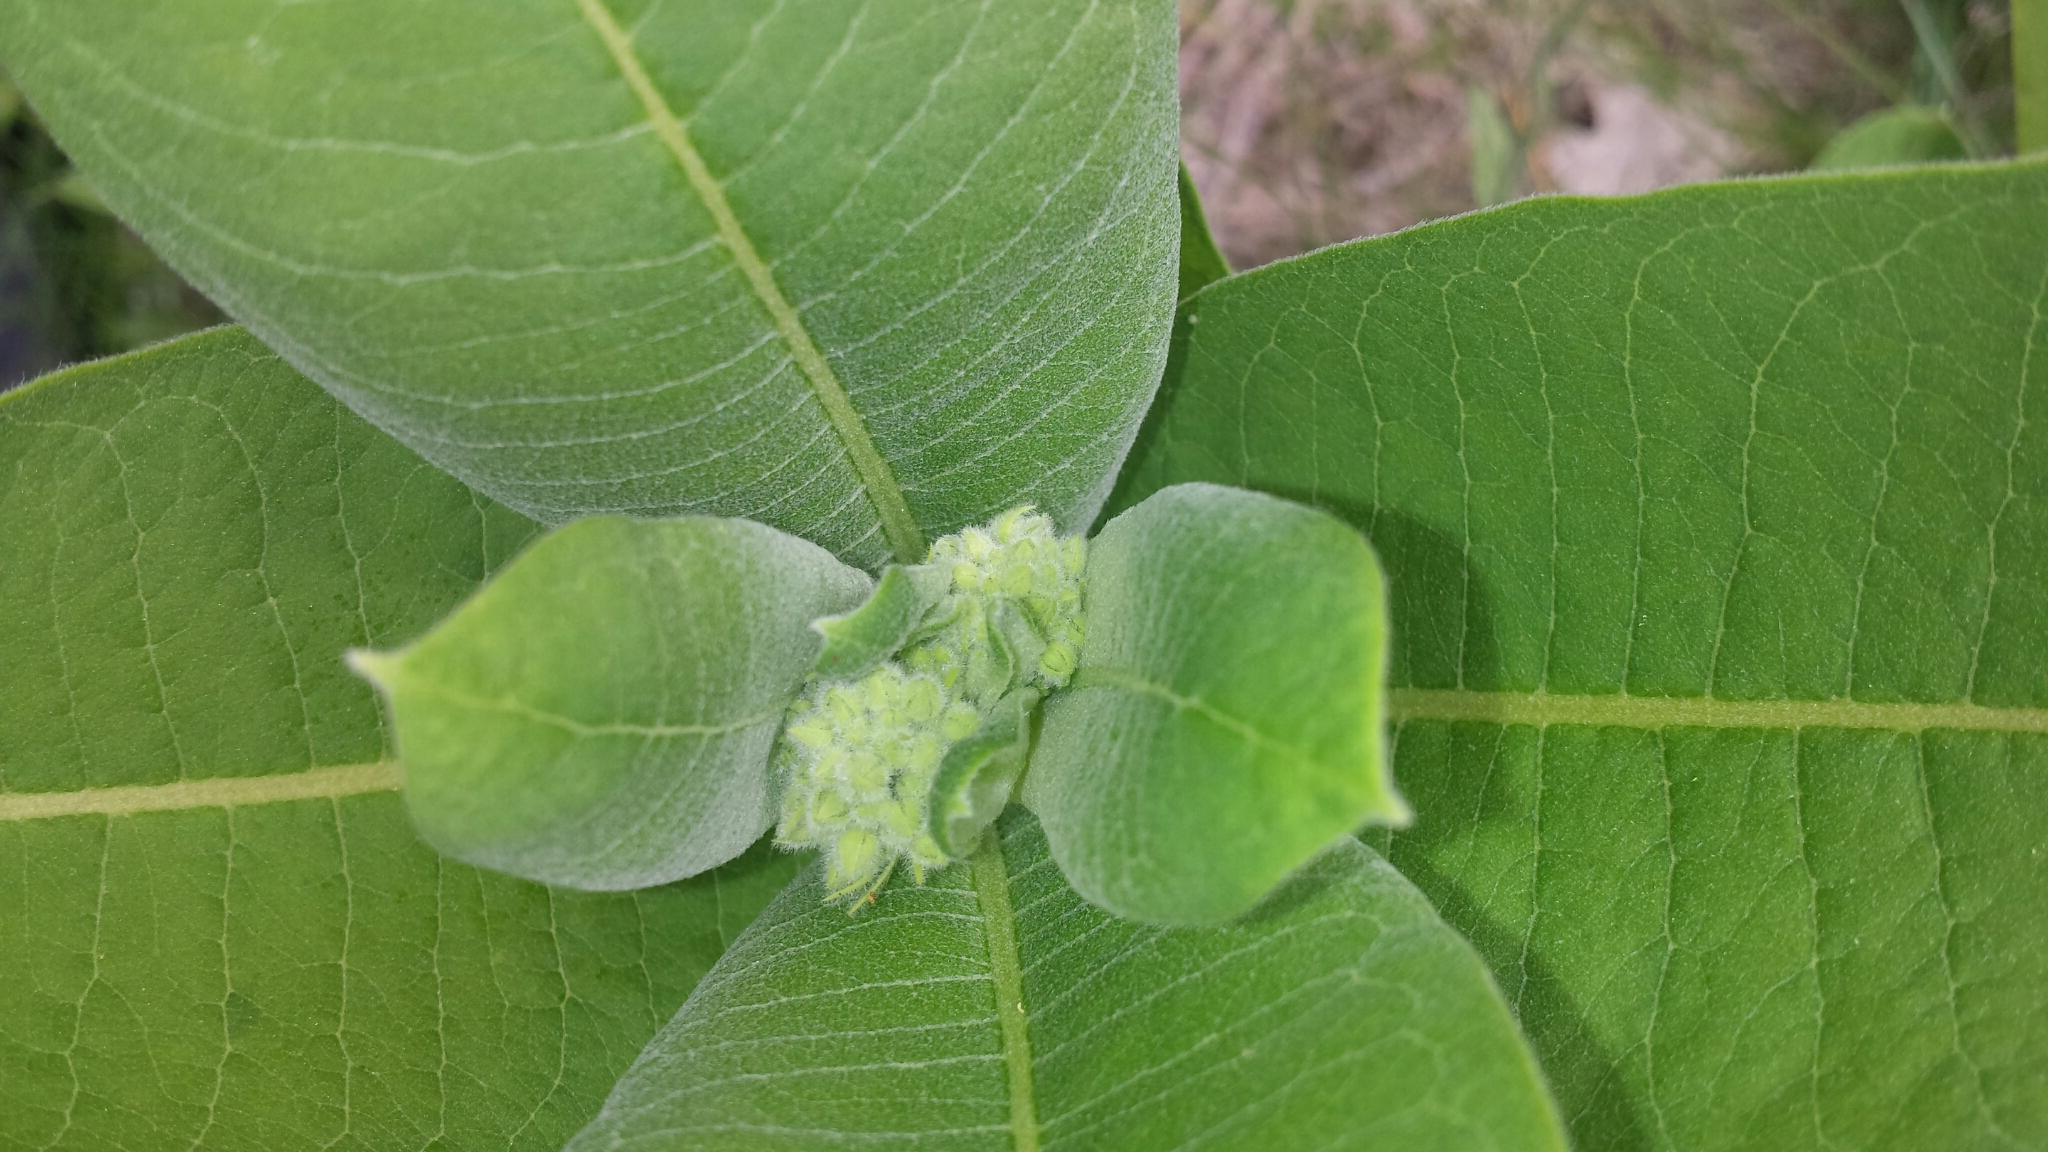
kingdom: Plantae
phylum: Tracheophyta
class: Magnoliopsida
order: Gentianales
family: Apocynaceae
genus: Asclepias
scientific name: Asclepias syriaca
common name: Common milkweed
